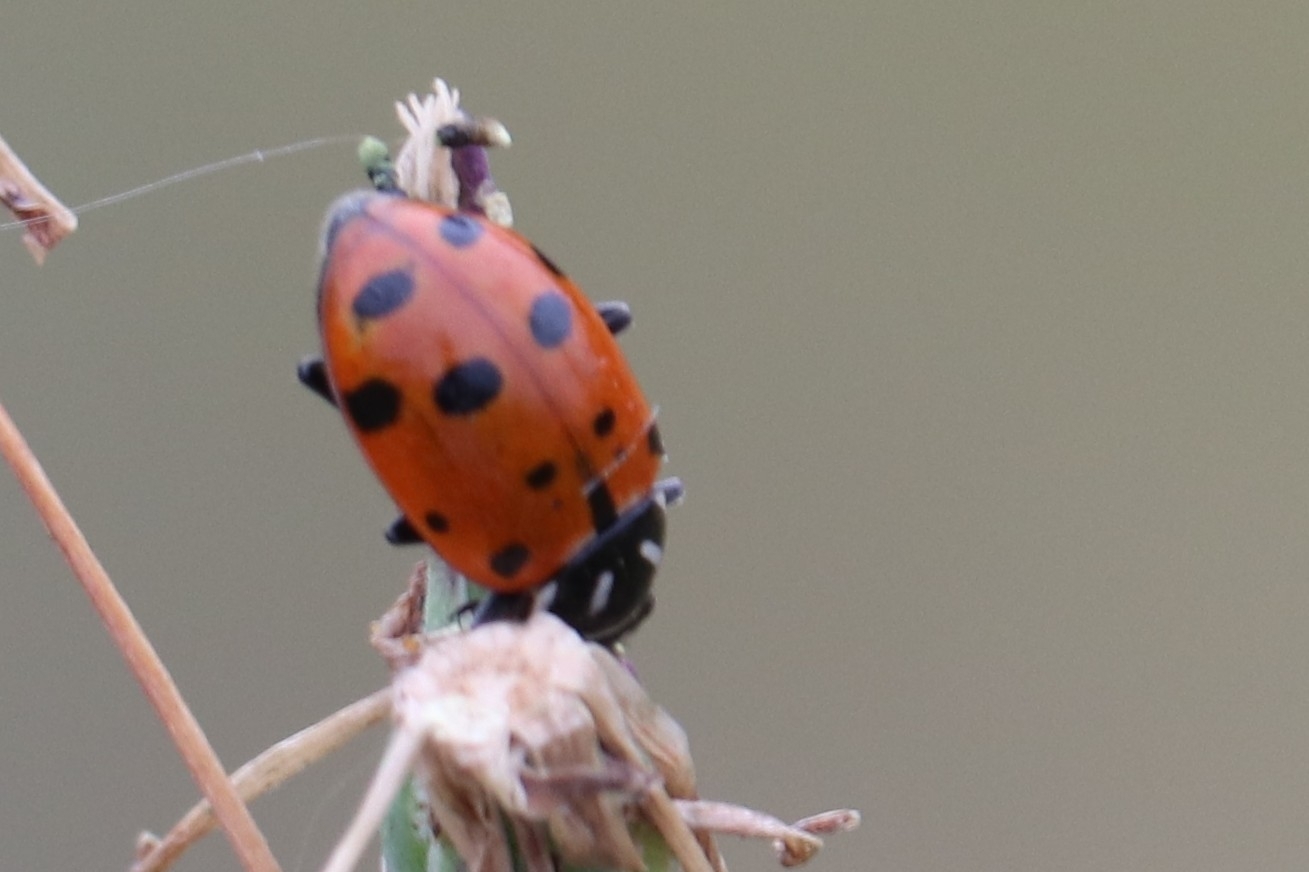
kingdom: Animalia
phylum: Arthropoda
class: Insecta
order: Coleoptera
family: Coccinellidae
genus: Hippodamia
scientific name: Hippodamia convergens
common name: Convergent lady beetle
